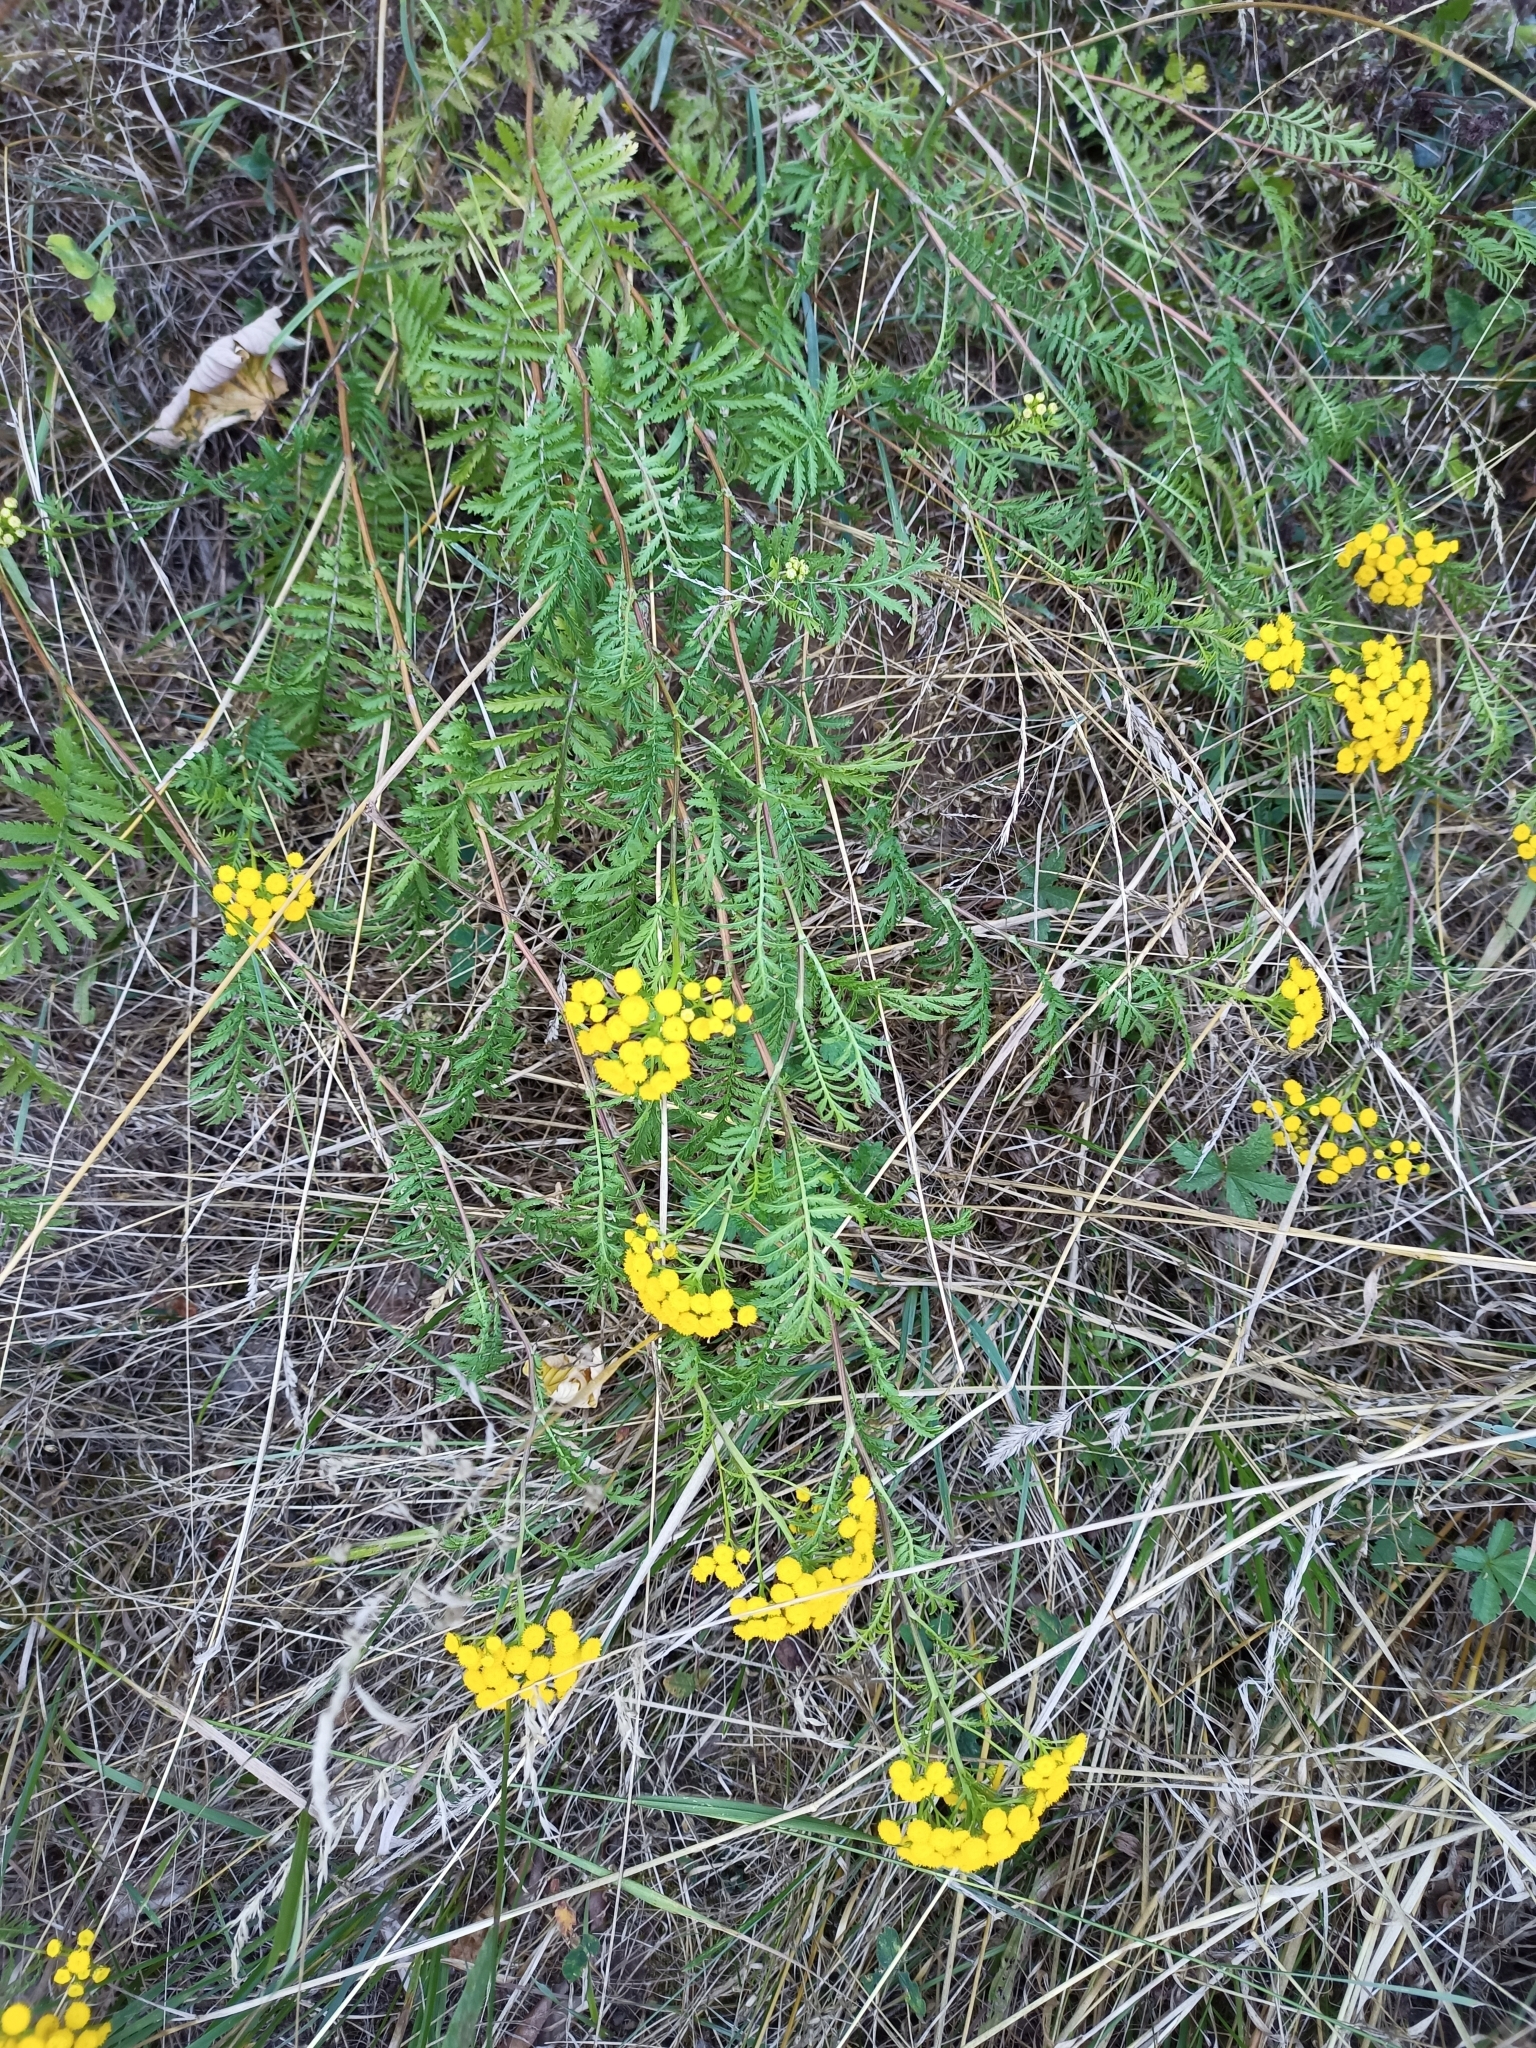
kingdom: Plantae
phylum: Tracheophyta
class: Magnoliopsida
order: Asterales
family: Asteraceae
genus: Tanacetum
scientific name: Tanacetum vulgare
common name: Common tansy
